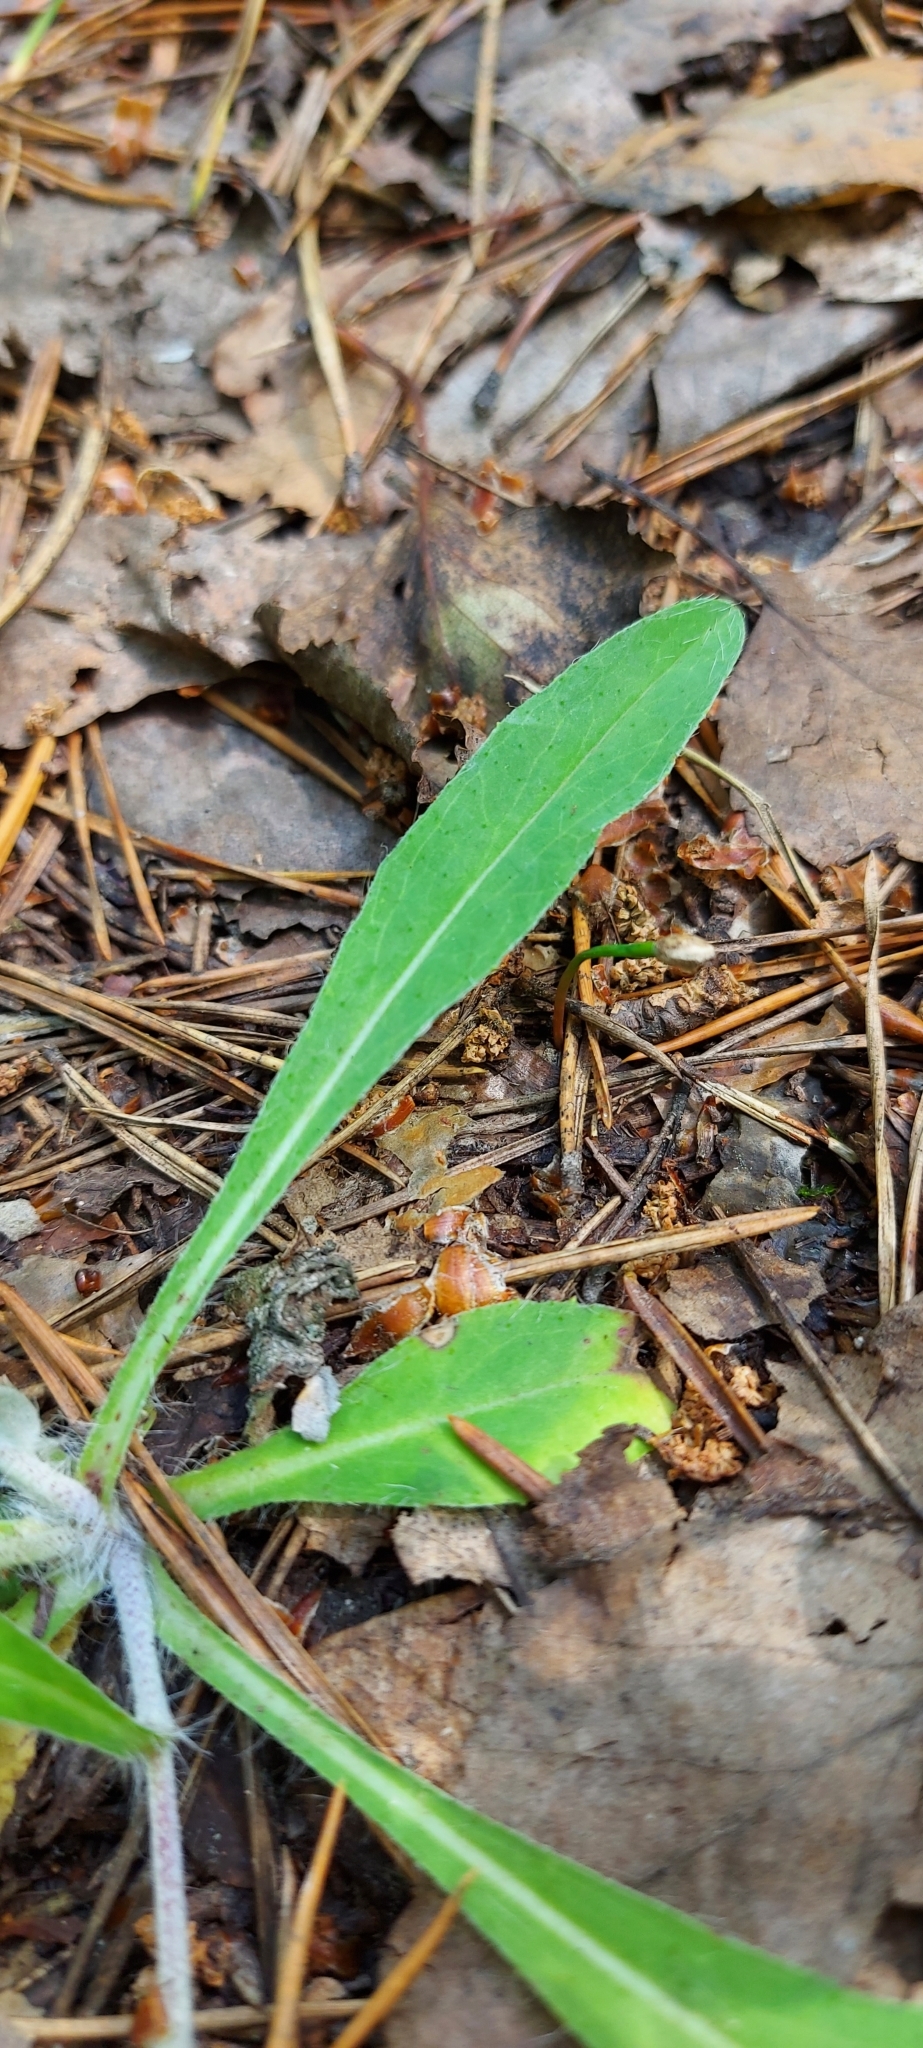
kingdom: Plantae
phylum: Tracheophyta
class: Magnoliopsida
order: Asterales
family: Asteraceae
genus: Pilosella
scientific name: Pilosella officinarum
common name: Mouse-ear hawkweed
